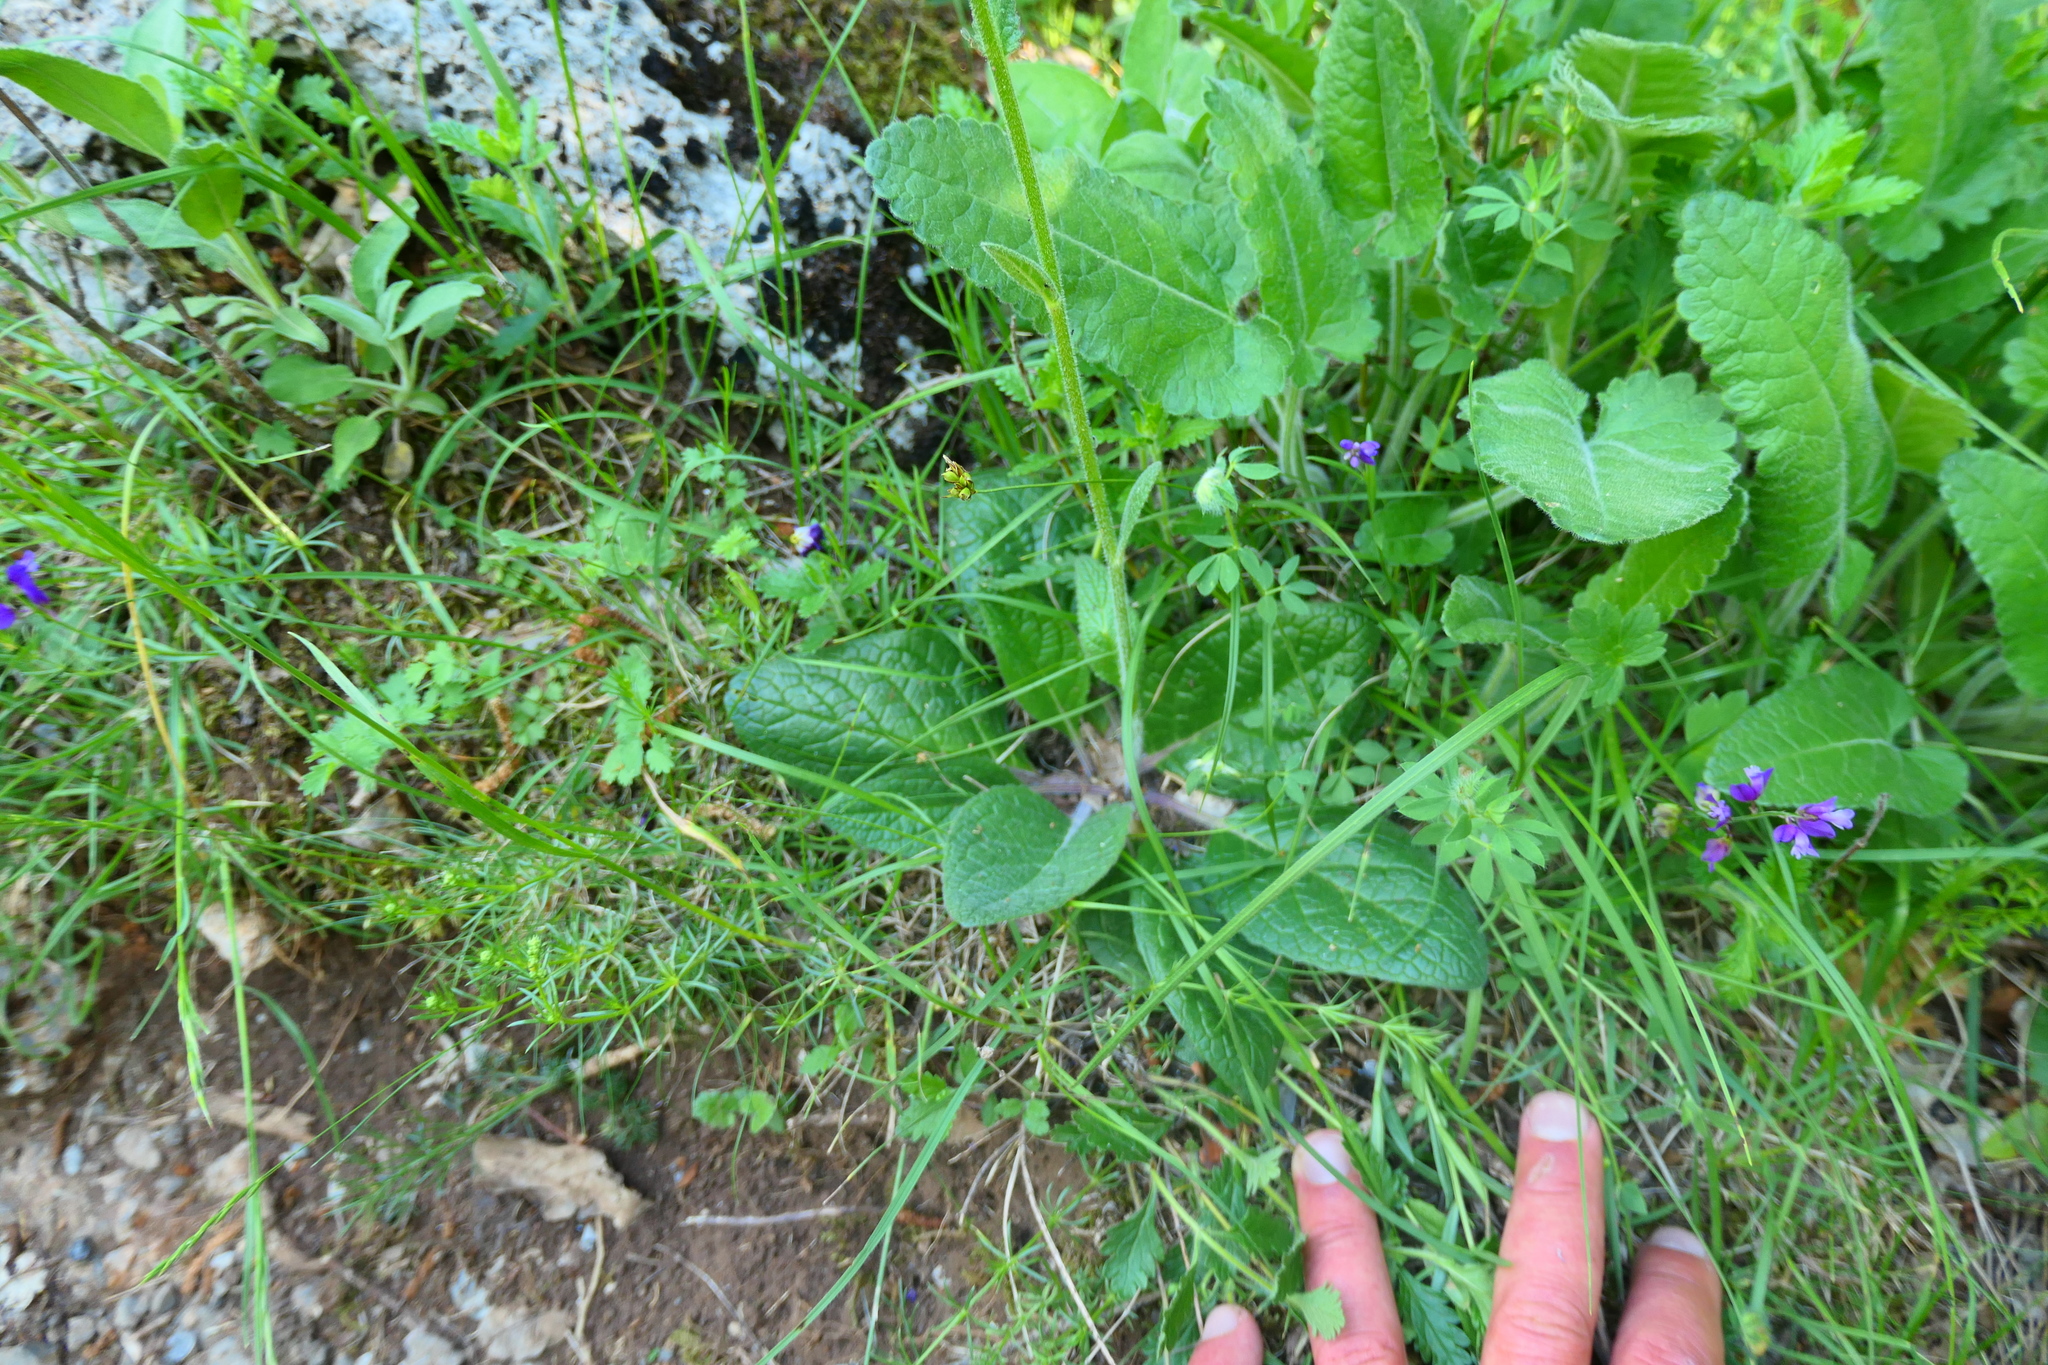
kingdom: Plantae
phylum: Tracheophyta
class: Magnoliopsida
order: Lamiales
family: Scrophulariaceae
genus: Verbascum
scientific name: Verbascum phoeniceum
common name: Purple mullein
